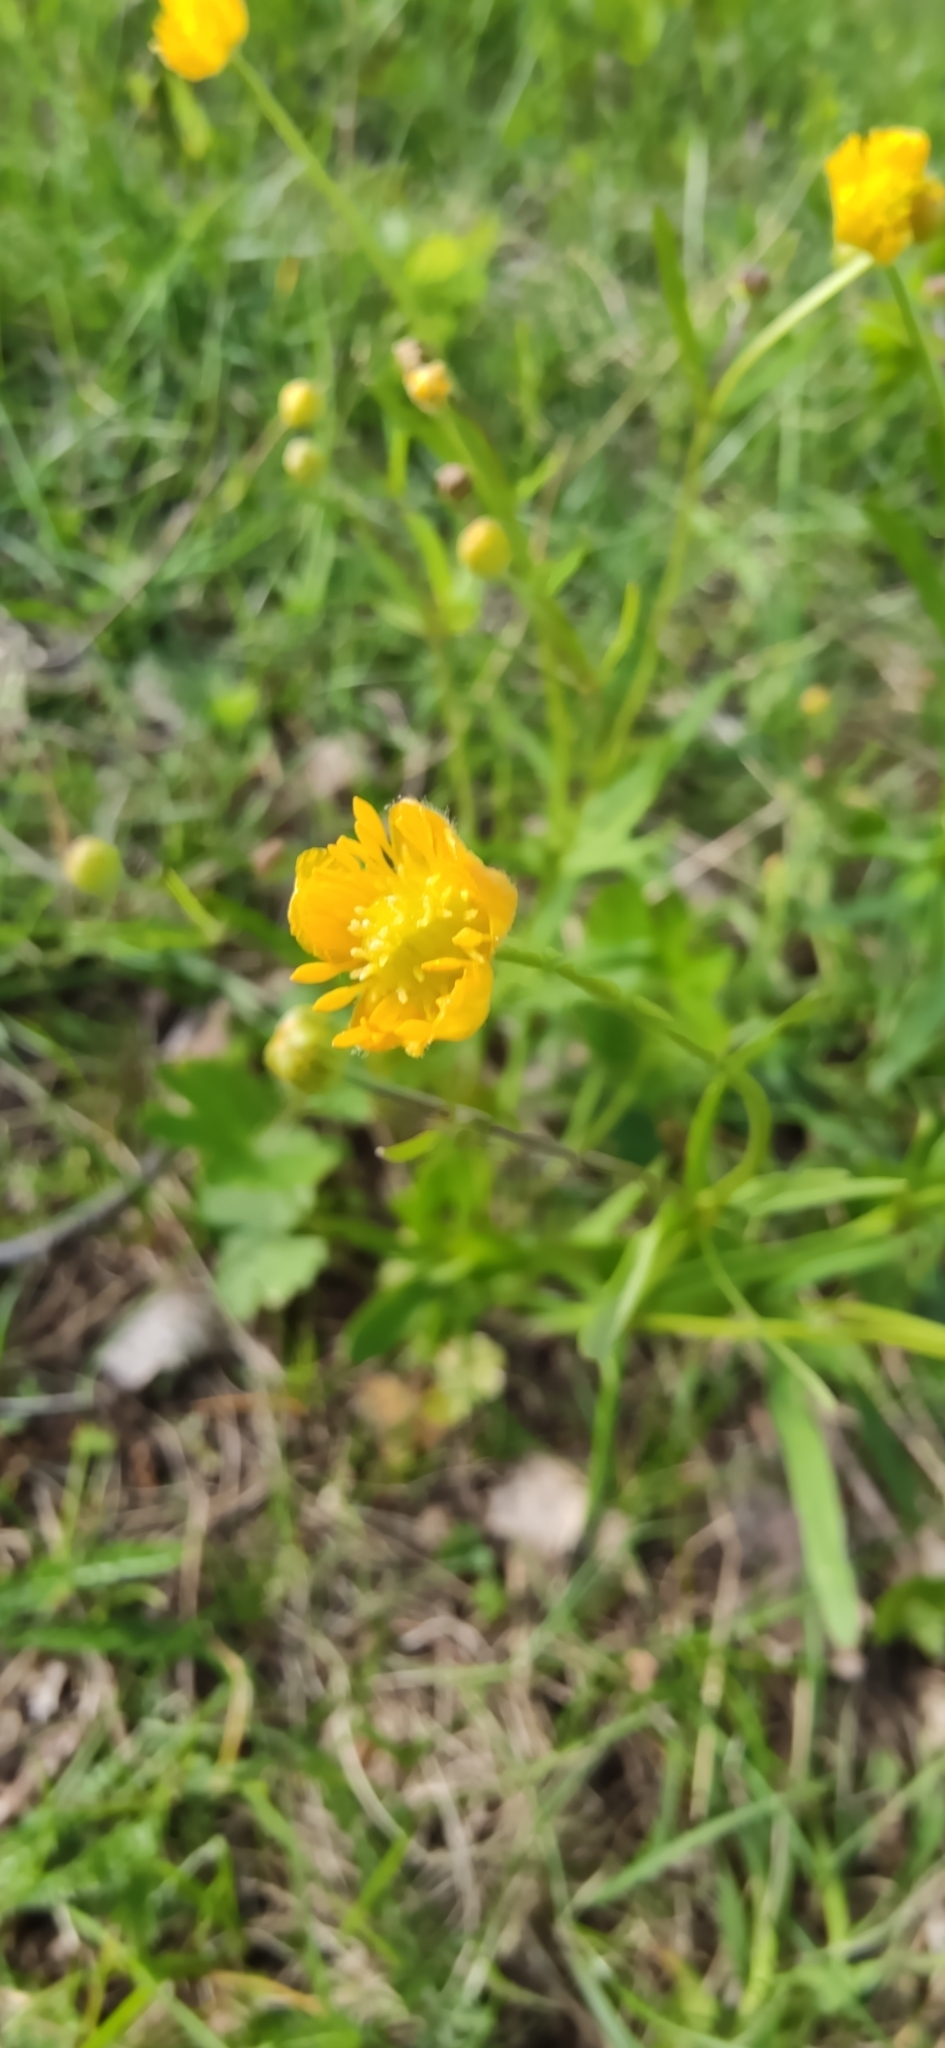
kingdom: Plantae
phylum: Tracheophyta
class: Magnoliopsida
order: Ranunculales
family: Ranunculaceae
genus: Ranunculus
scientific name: Ranunculus auricomus
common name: Goldilocks buttercup
